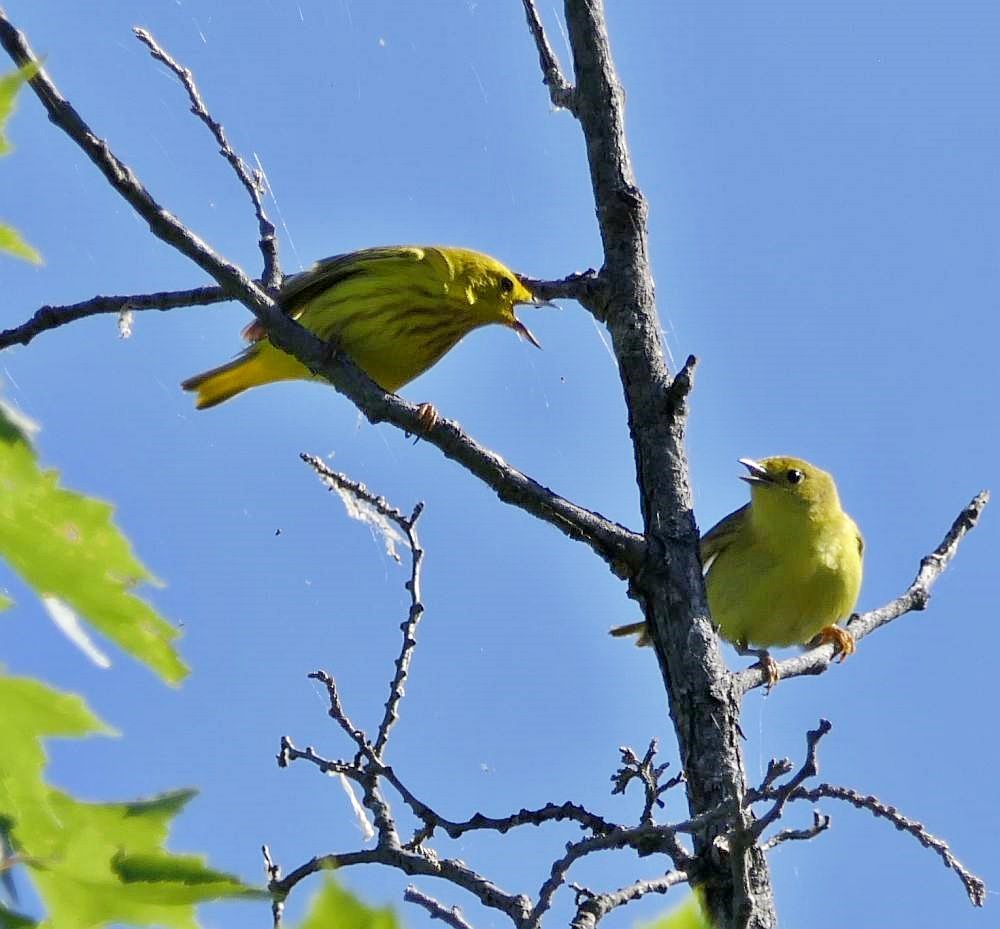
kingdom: Animalia
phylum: Chordata
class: Aves
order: Passeriformes
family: Parulidae
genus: Setophaga
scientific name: Setophaga petechia
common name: Yellow warbler
